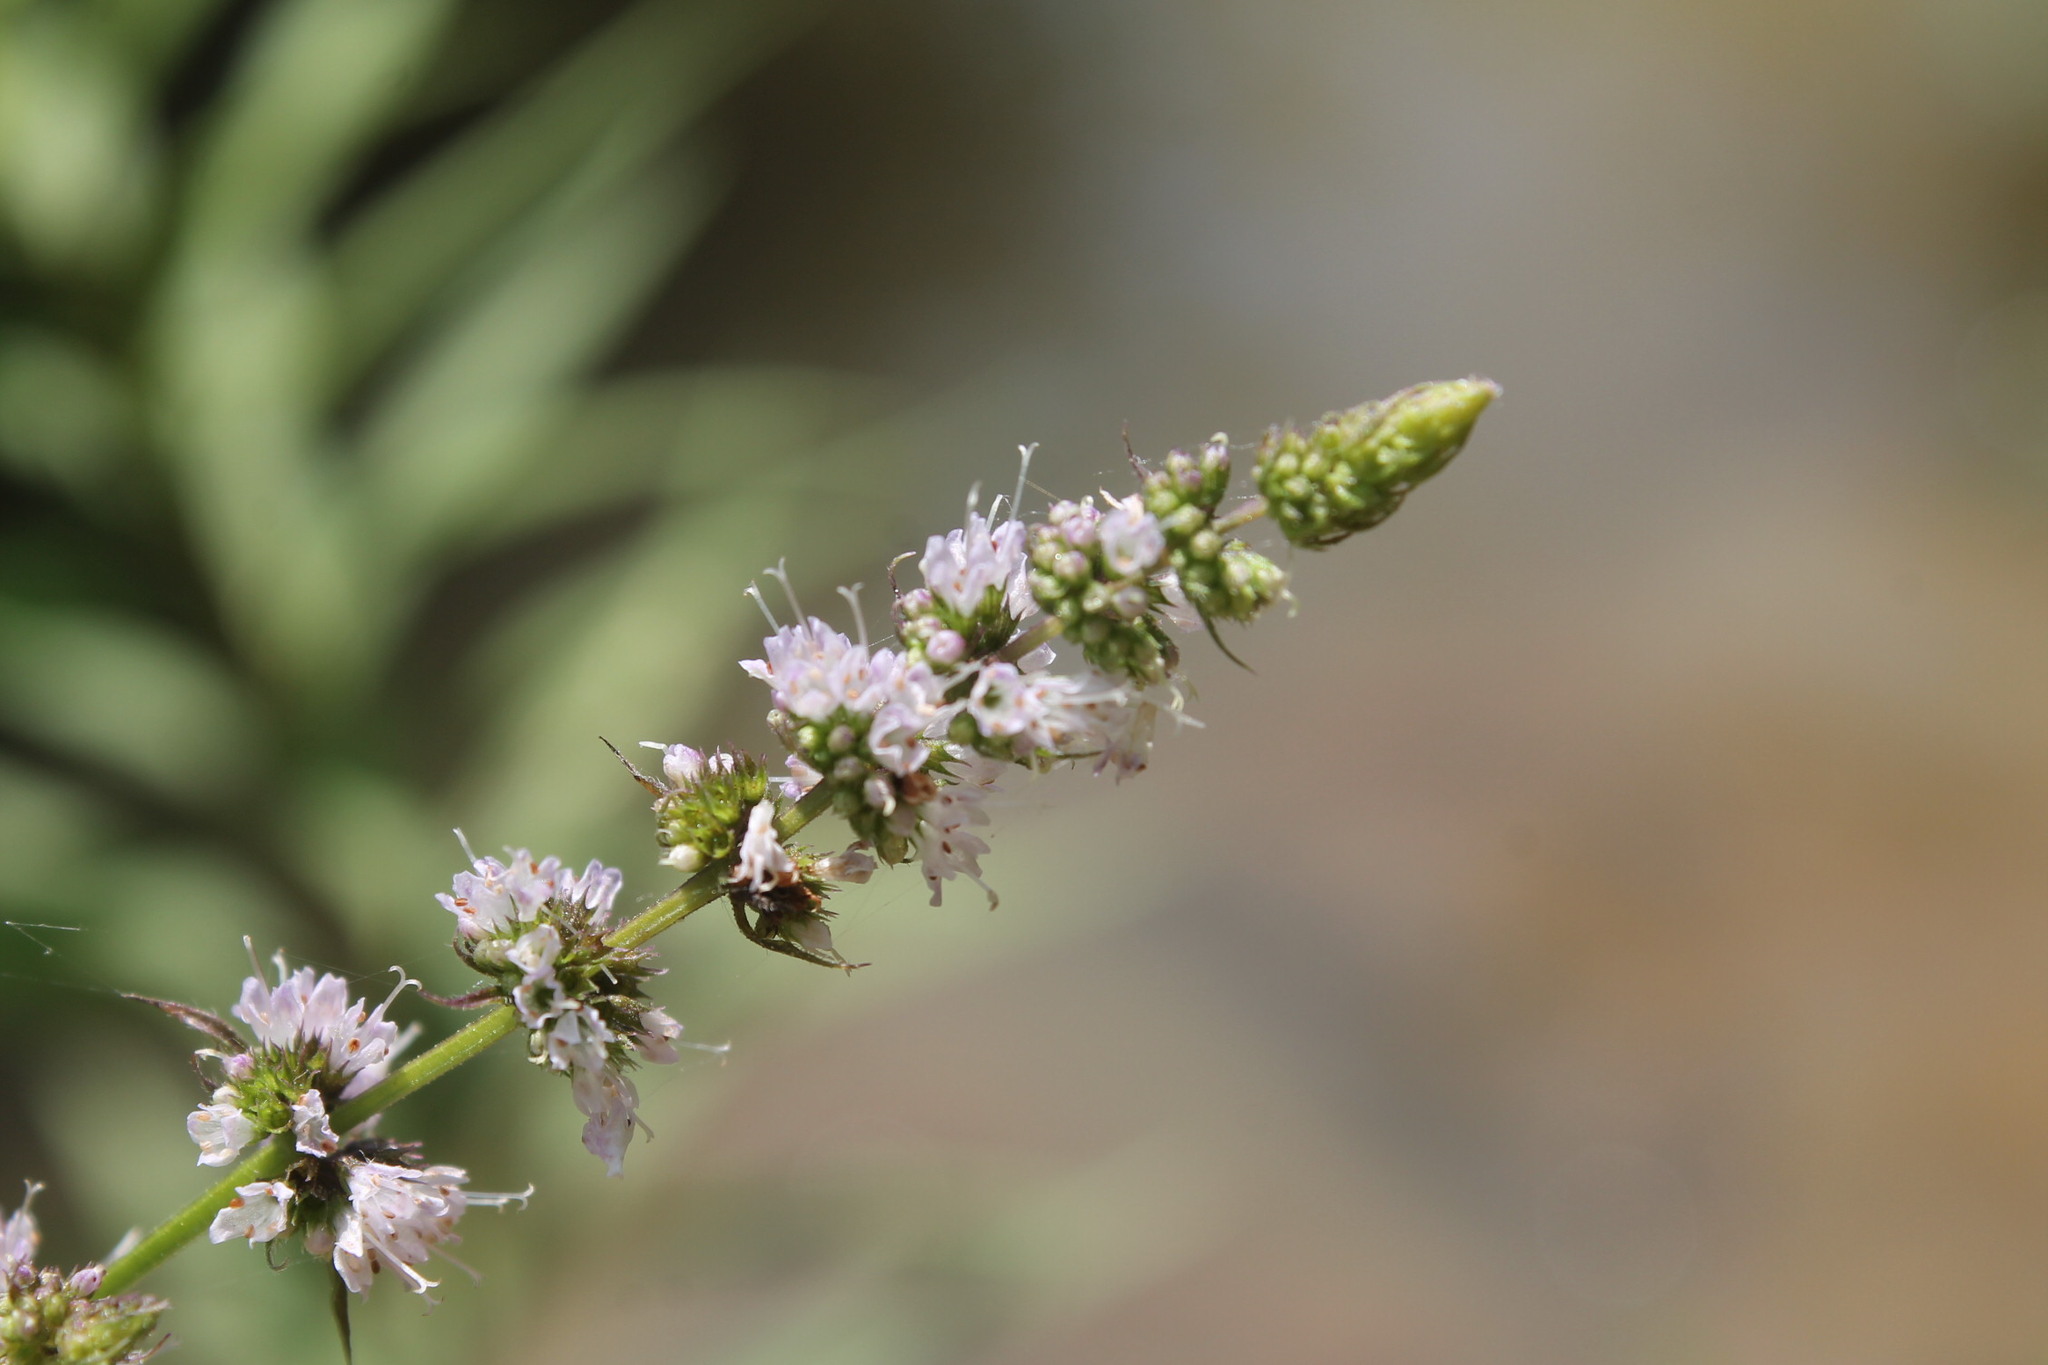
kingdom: Plantae
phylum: Tracheophyta
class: Magnoliopsida
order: Lamiales
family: Lamiaceae
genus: Mentha
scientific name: Mentha spicata
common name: Spearmint
